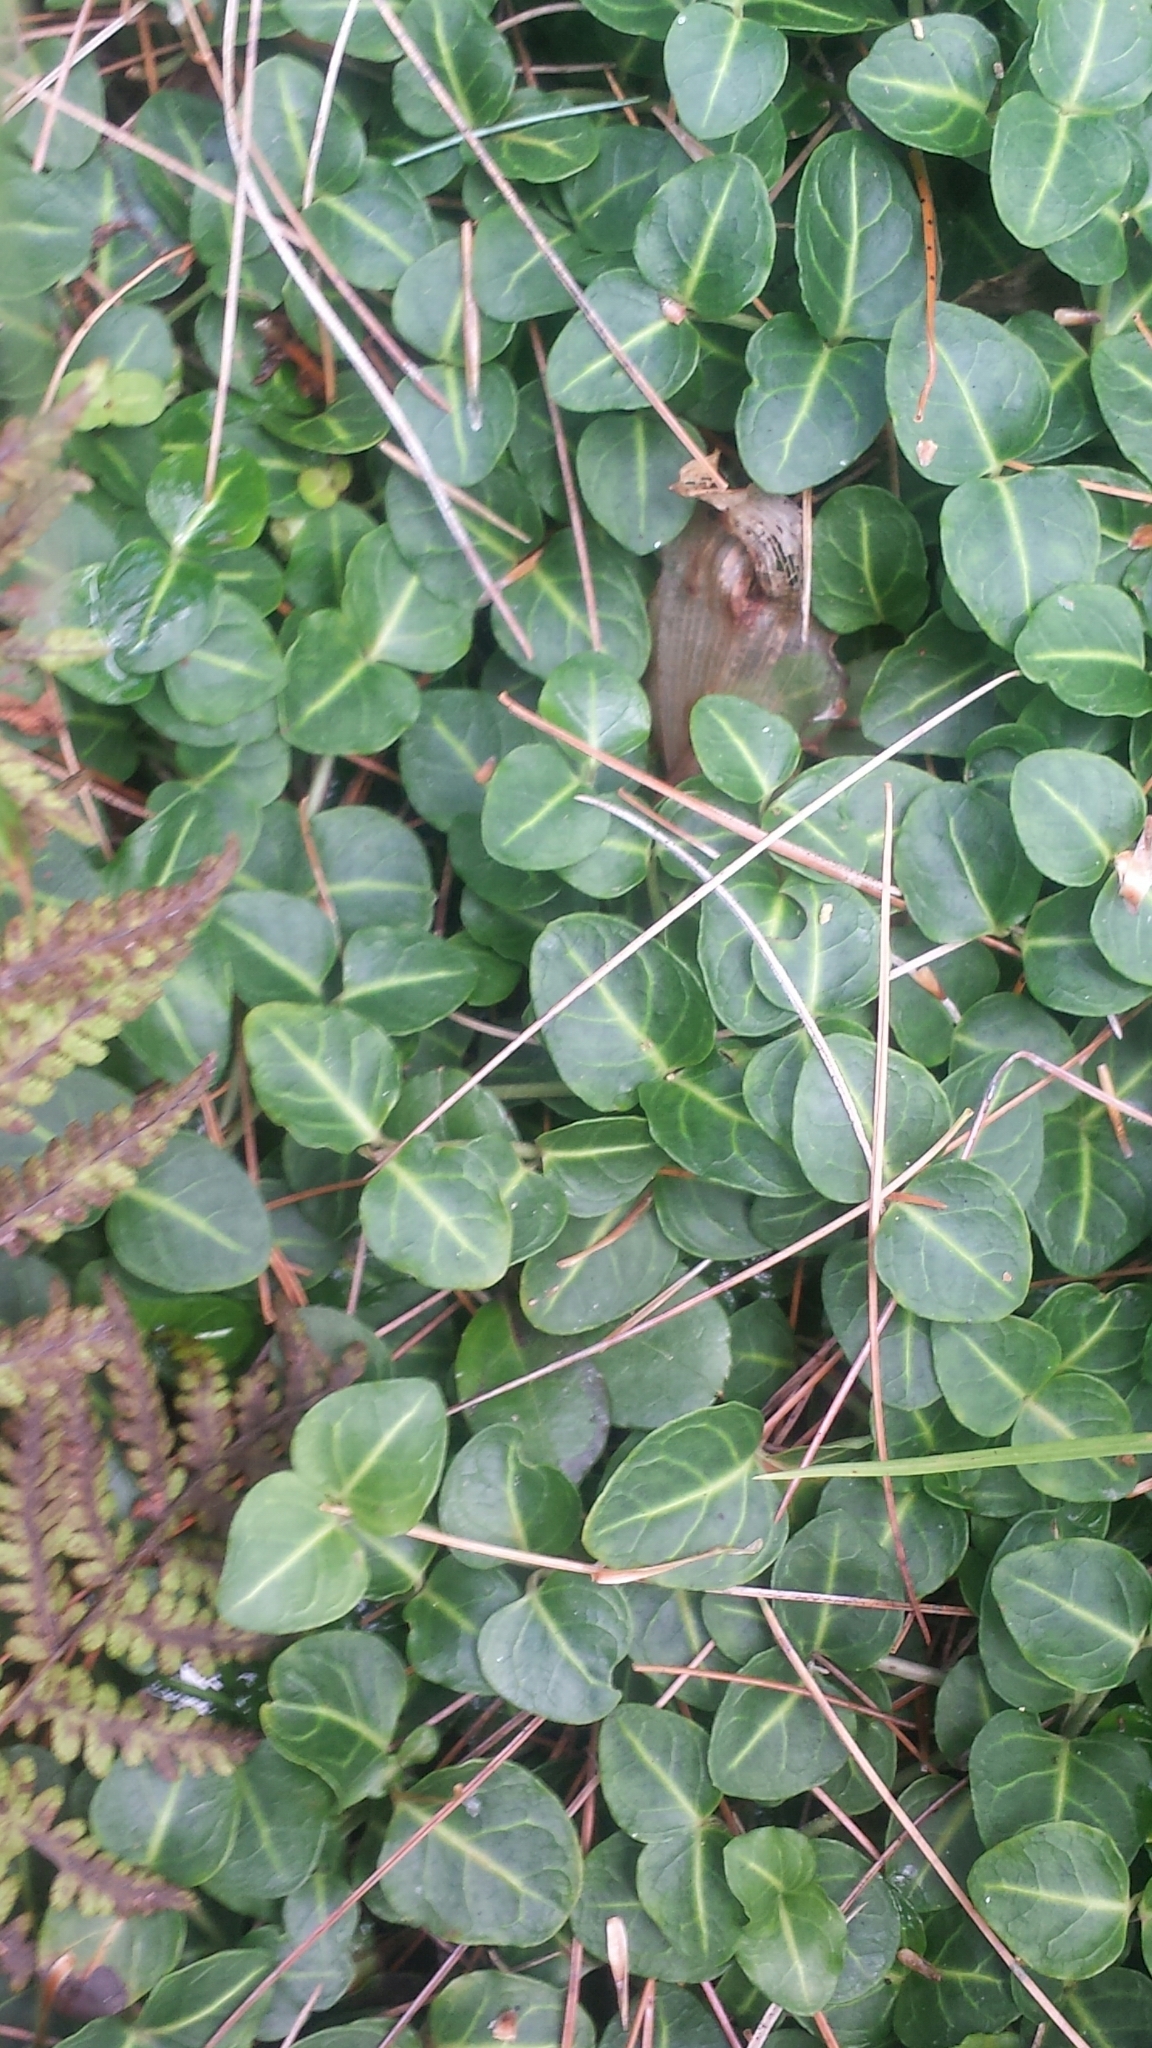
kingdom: Plantae
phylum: Tracheophyta
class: Magnoliopsida
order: Gentianales
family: Rubiaceae
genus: Mitchella
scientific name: Mitchella repens
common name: Partridge-berry
